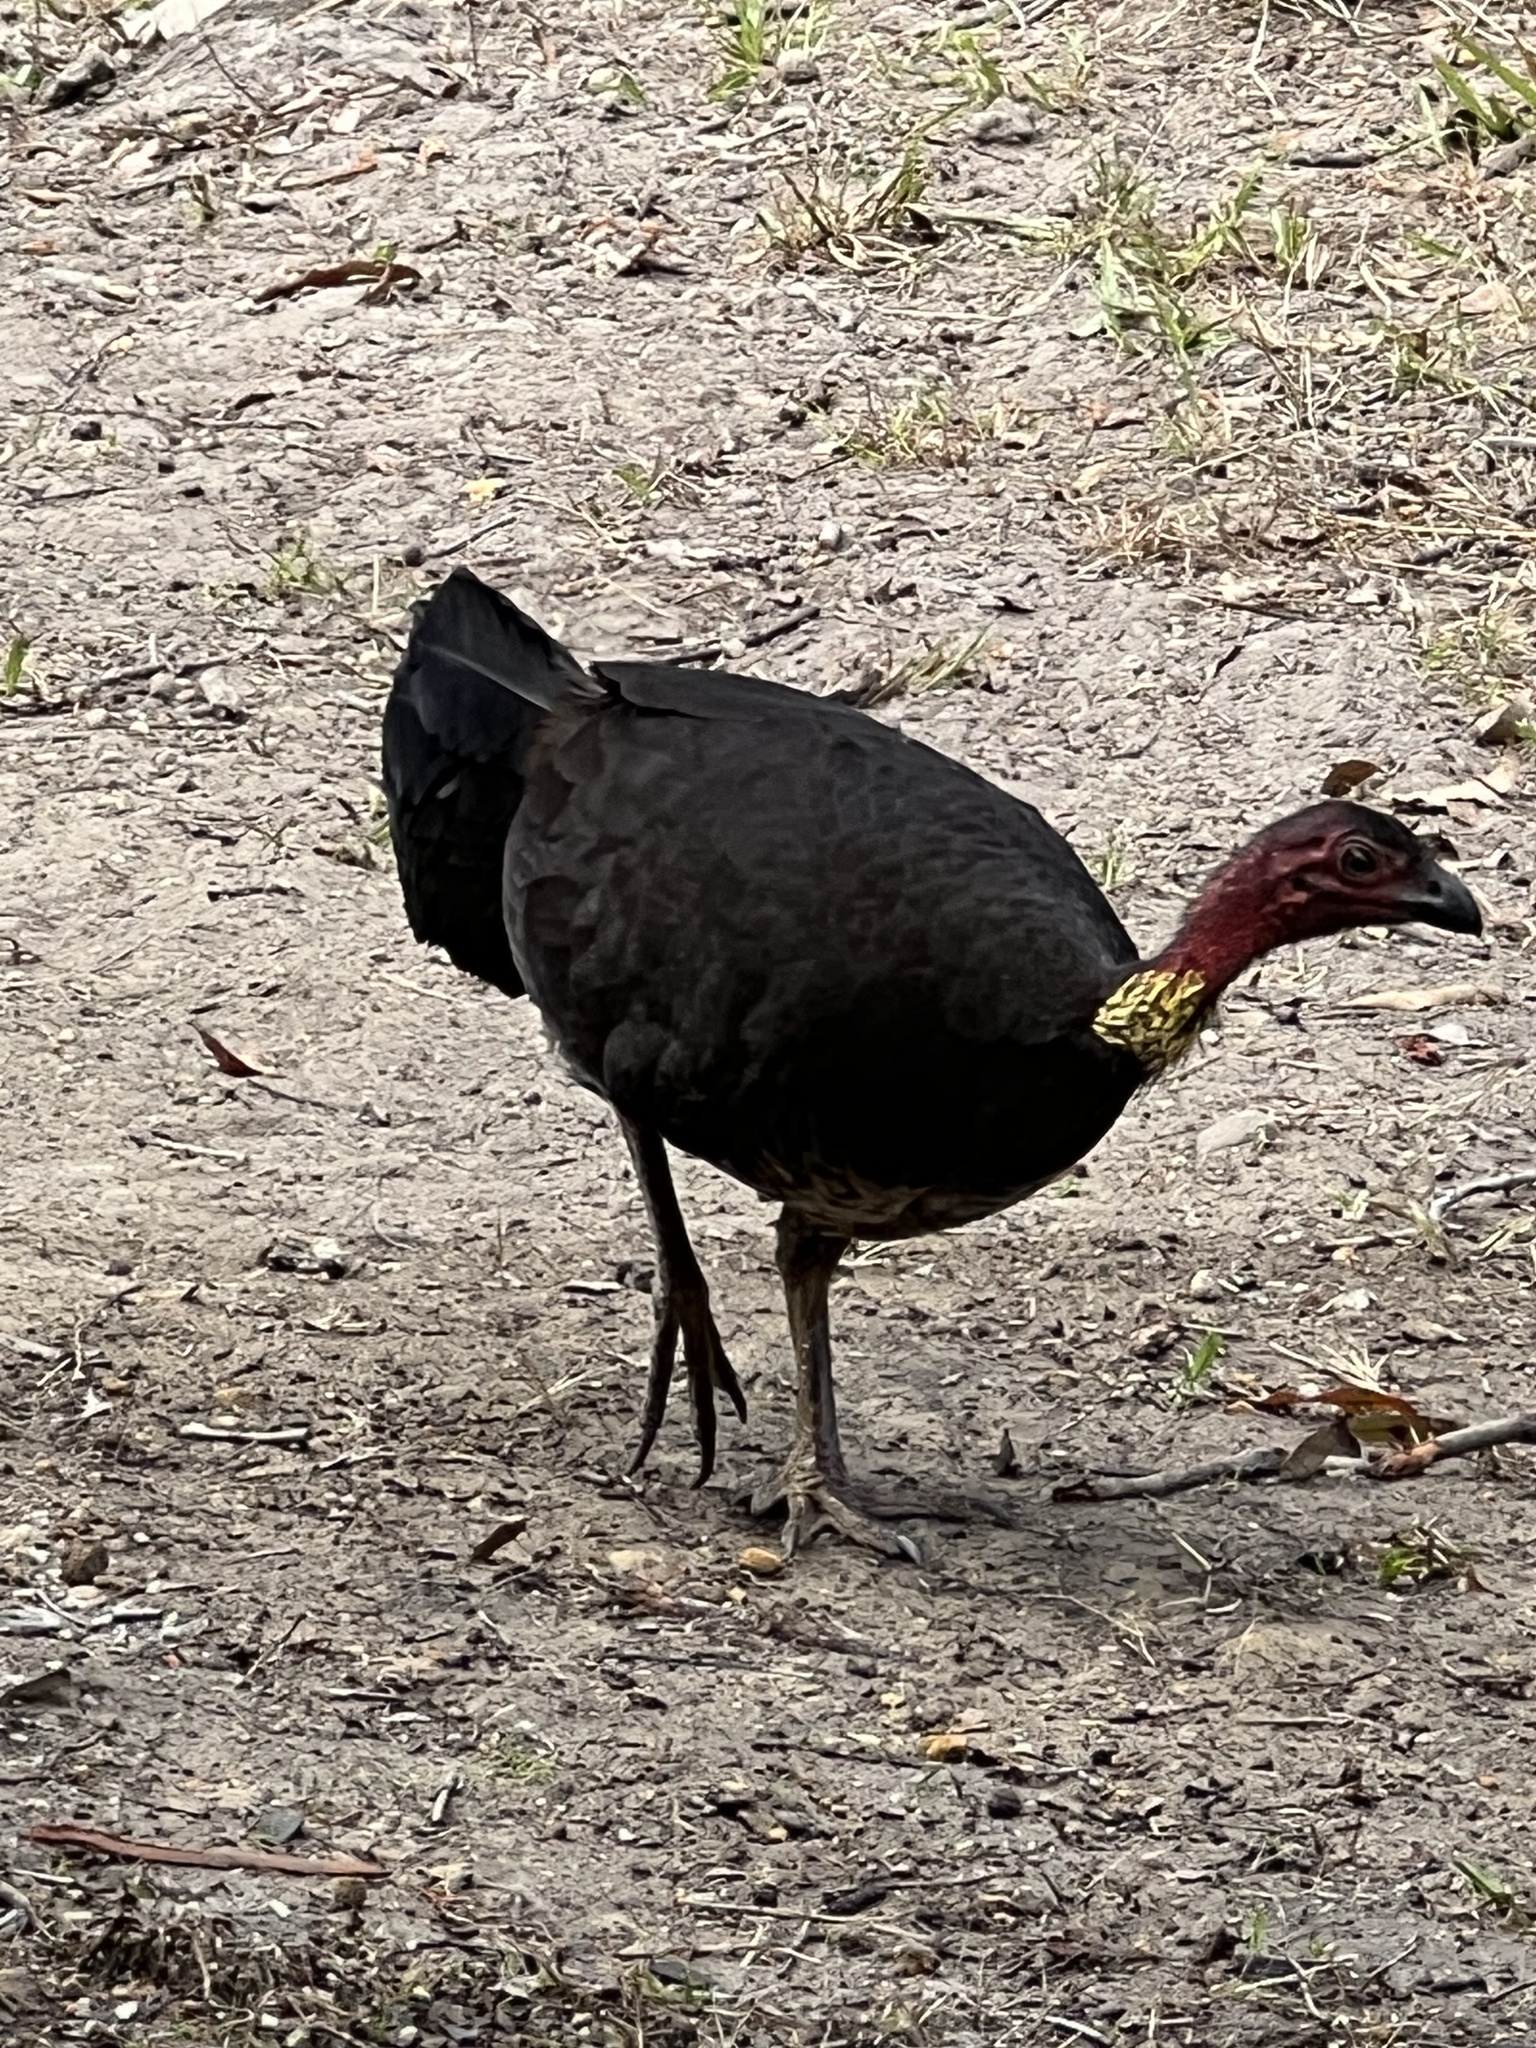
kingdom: Animalia
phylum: Chordata
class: Aves
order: Galliformes
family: Megapodiidae
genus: Alectura
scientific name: Alectura lathami
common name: Australian brushturkey
